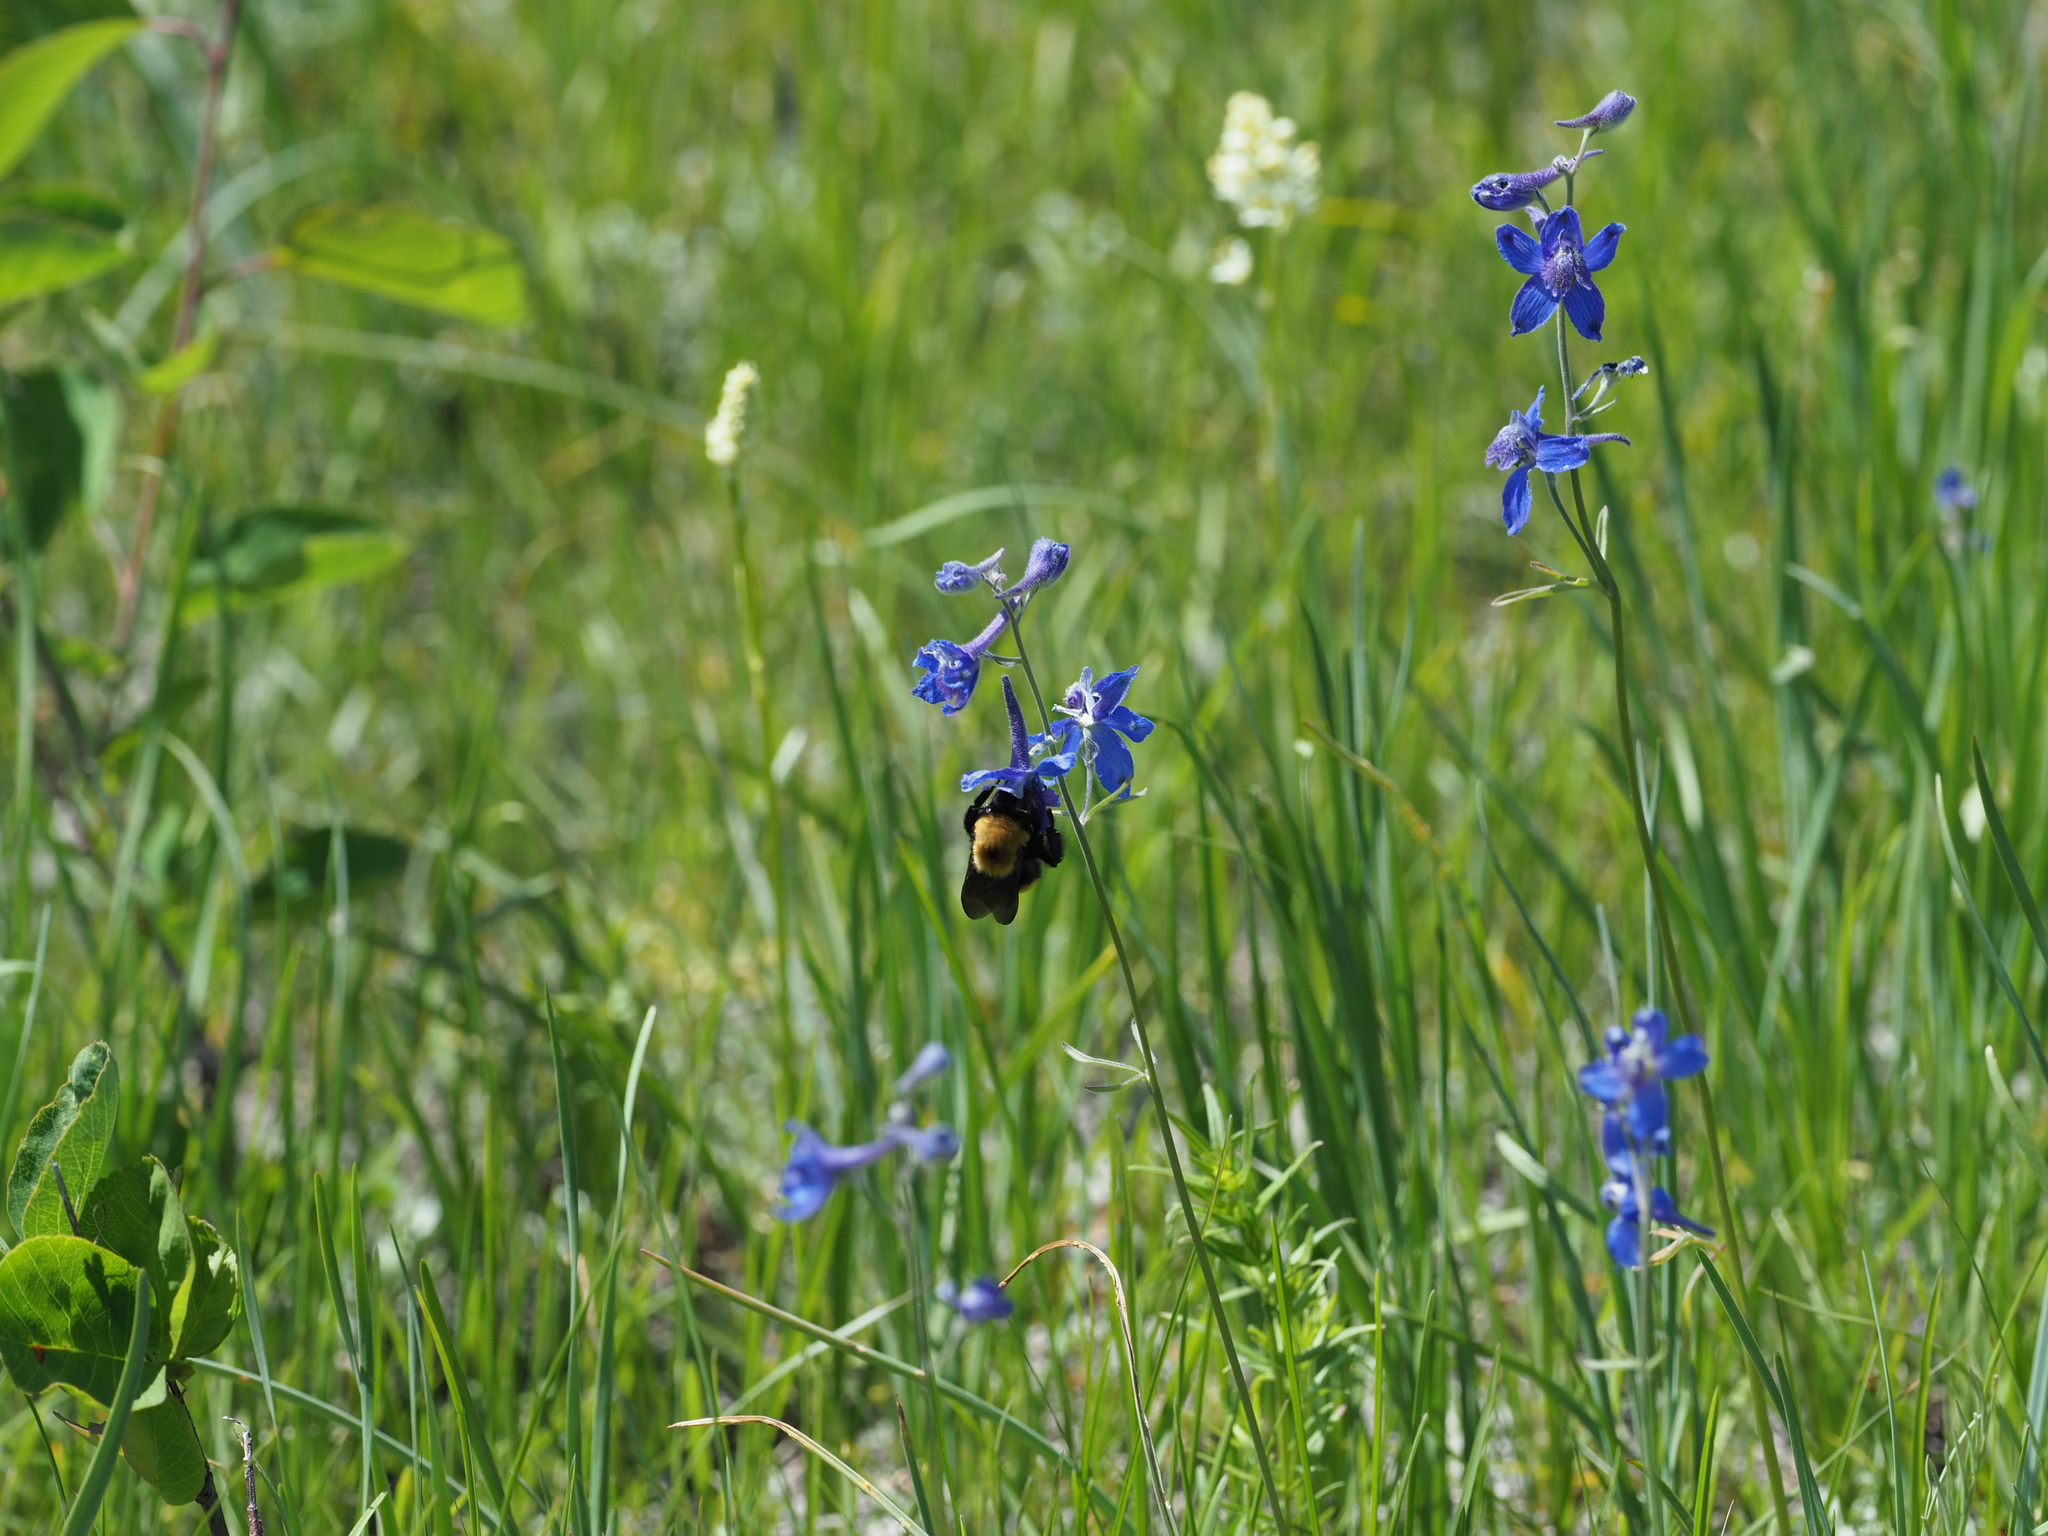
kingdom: Animalia
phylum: Arthropoda
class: Insecta
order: Hymenoptera
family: Apidae
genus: Bombus
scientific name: Bombus nevadensis
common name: Nevada bumble bee
